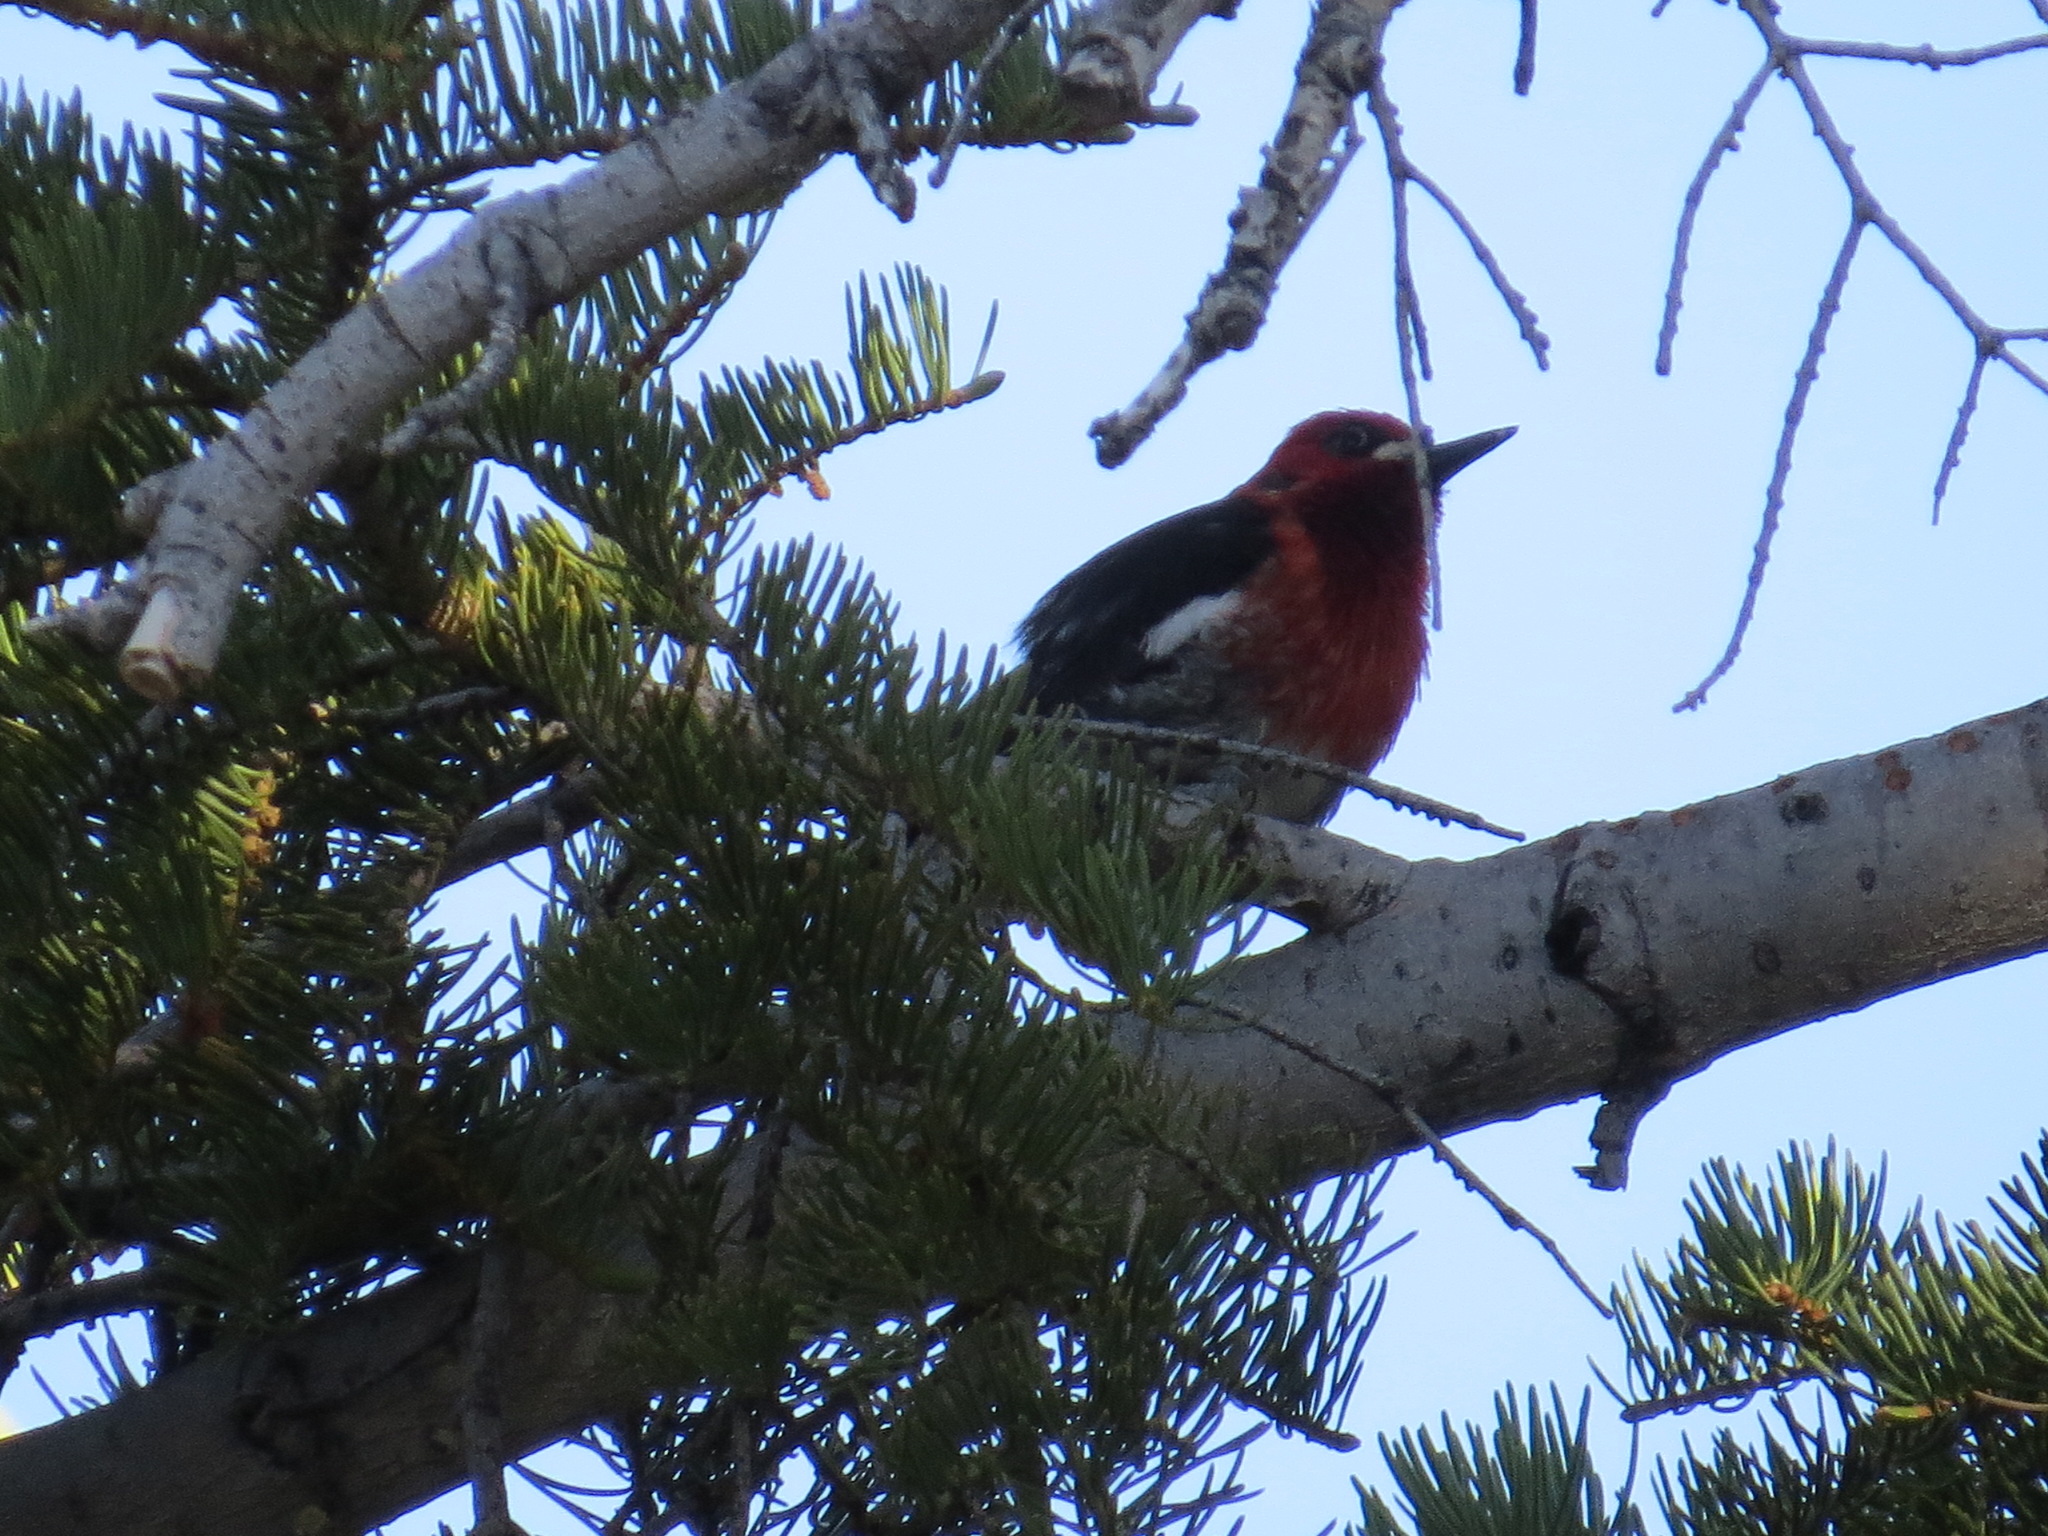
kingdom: Animalia
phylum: Chordata
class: Aves
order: Piciformes
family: Picidae
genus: Sphyrapicus
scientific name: Sphyrapicus ruber
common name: Red-breasted sapsucker
